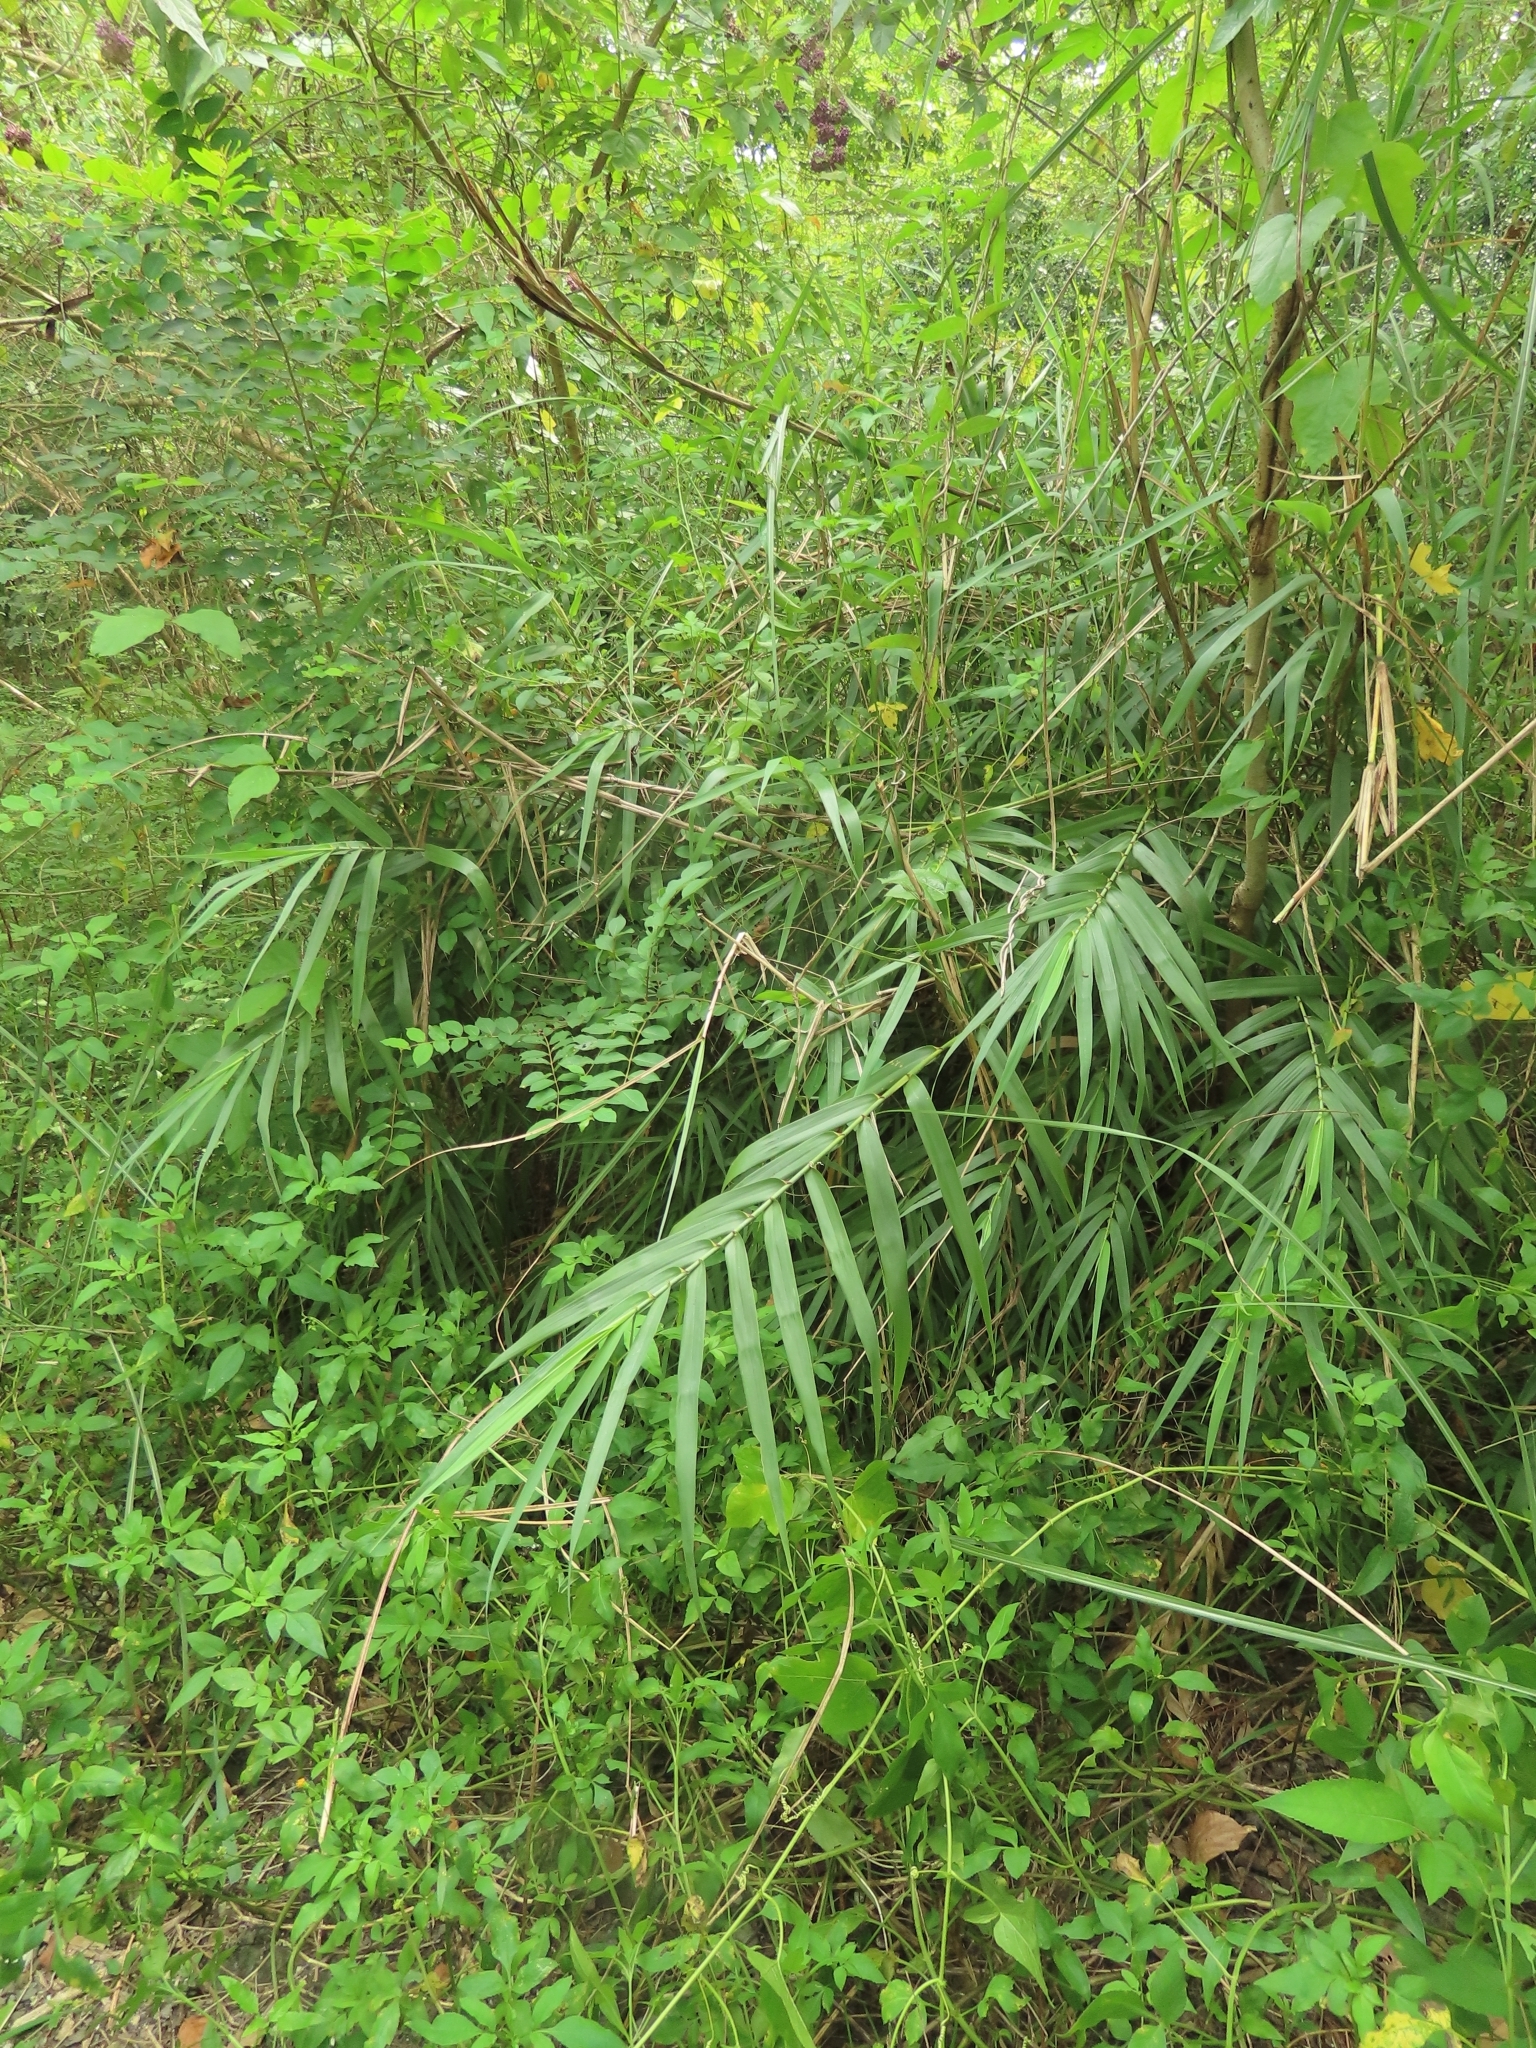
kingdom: Plantae
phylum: Tracheophyta
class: Liliopsida
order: Poales
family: Poaceae
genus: Arundo
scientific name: Arundo formosana
